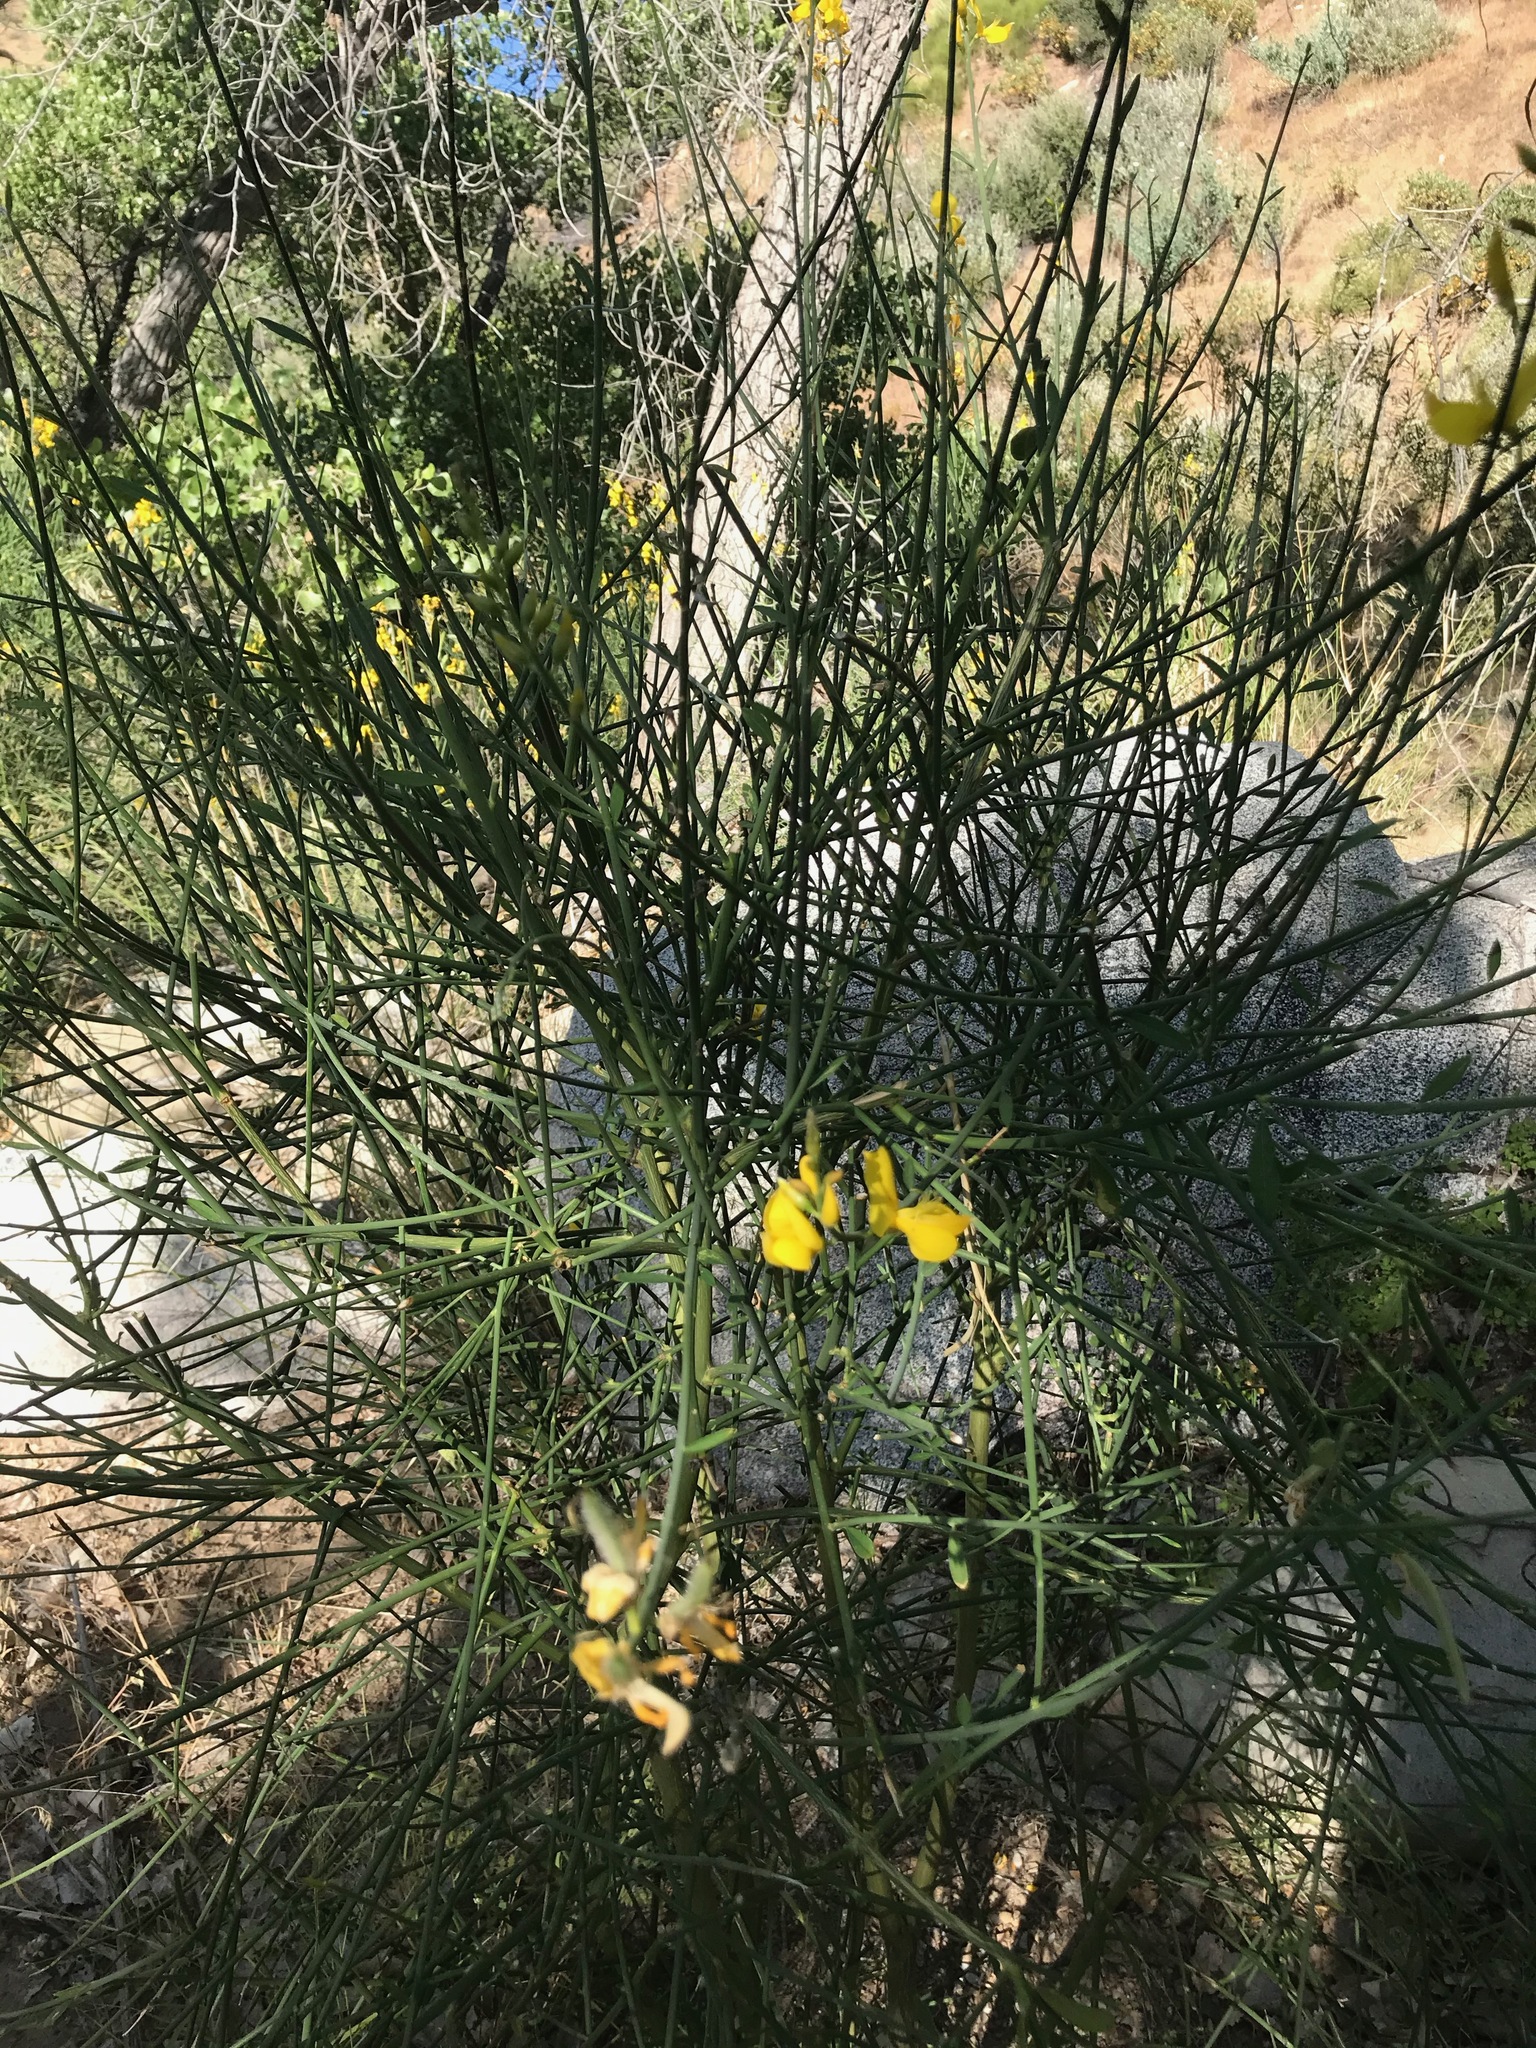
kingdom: Plantae
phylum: Tracheophyta
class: Magnoliopsida
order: Fabales
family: Fabaceae
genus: Spartium
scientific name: Spartium junceum
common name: Spanish broom
